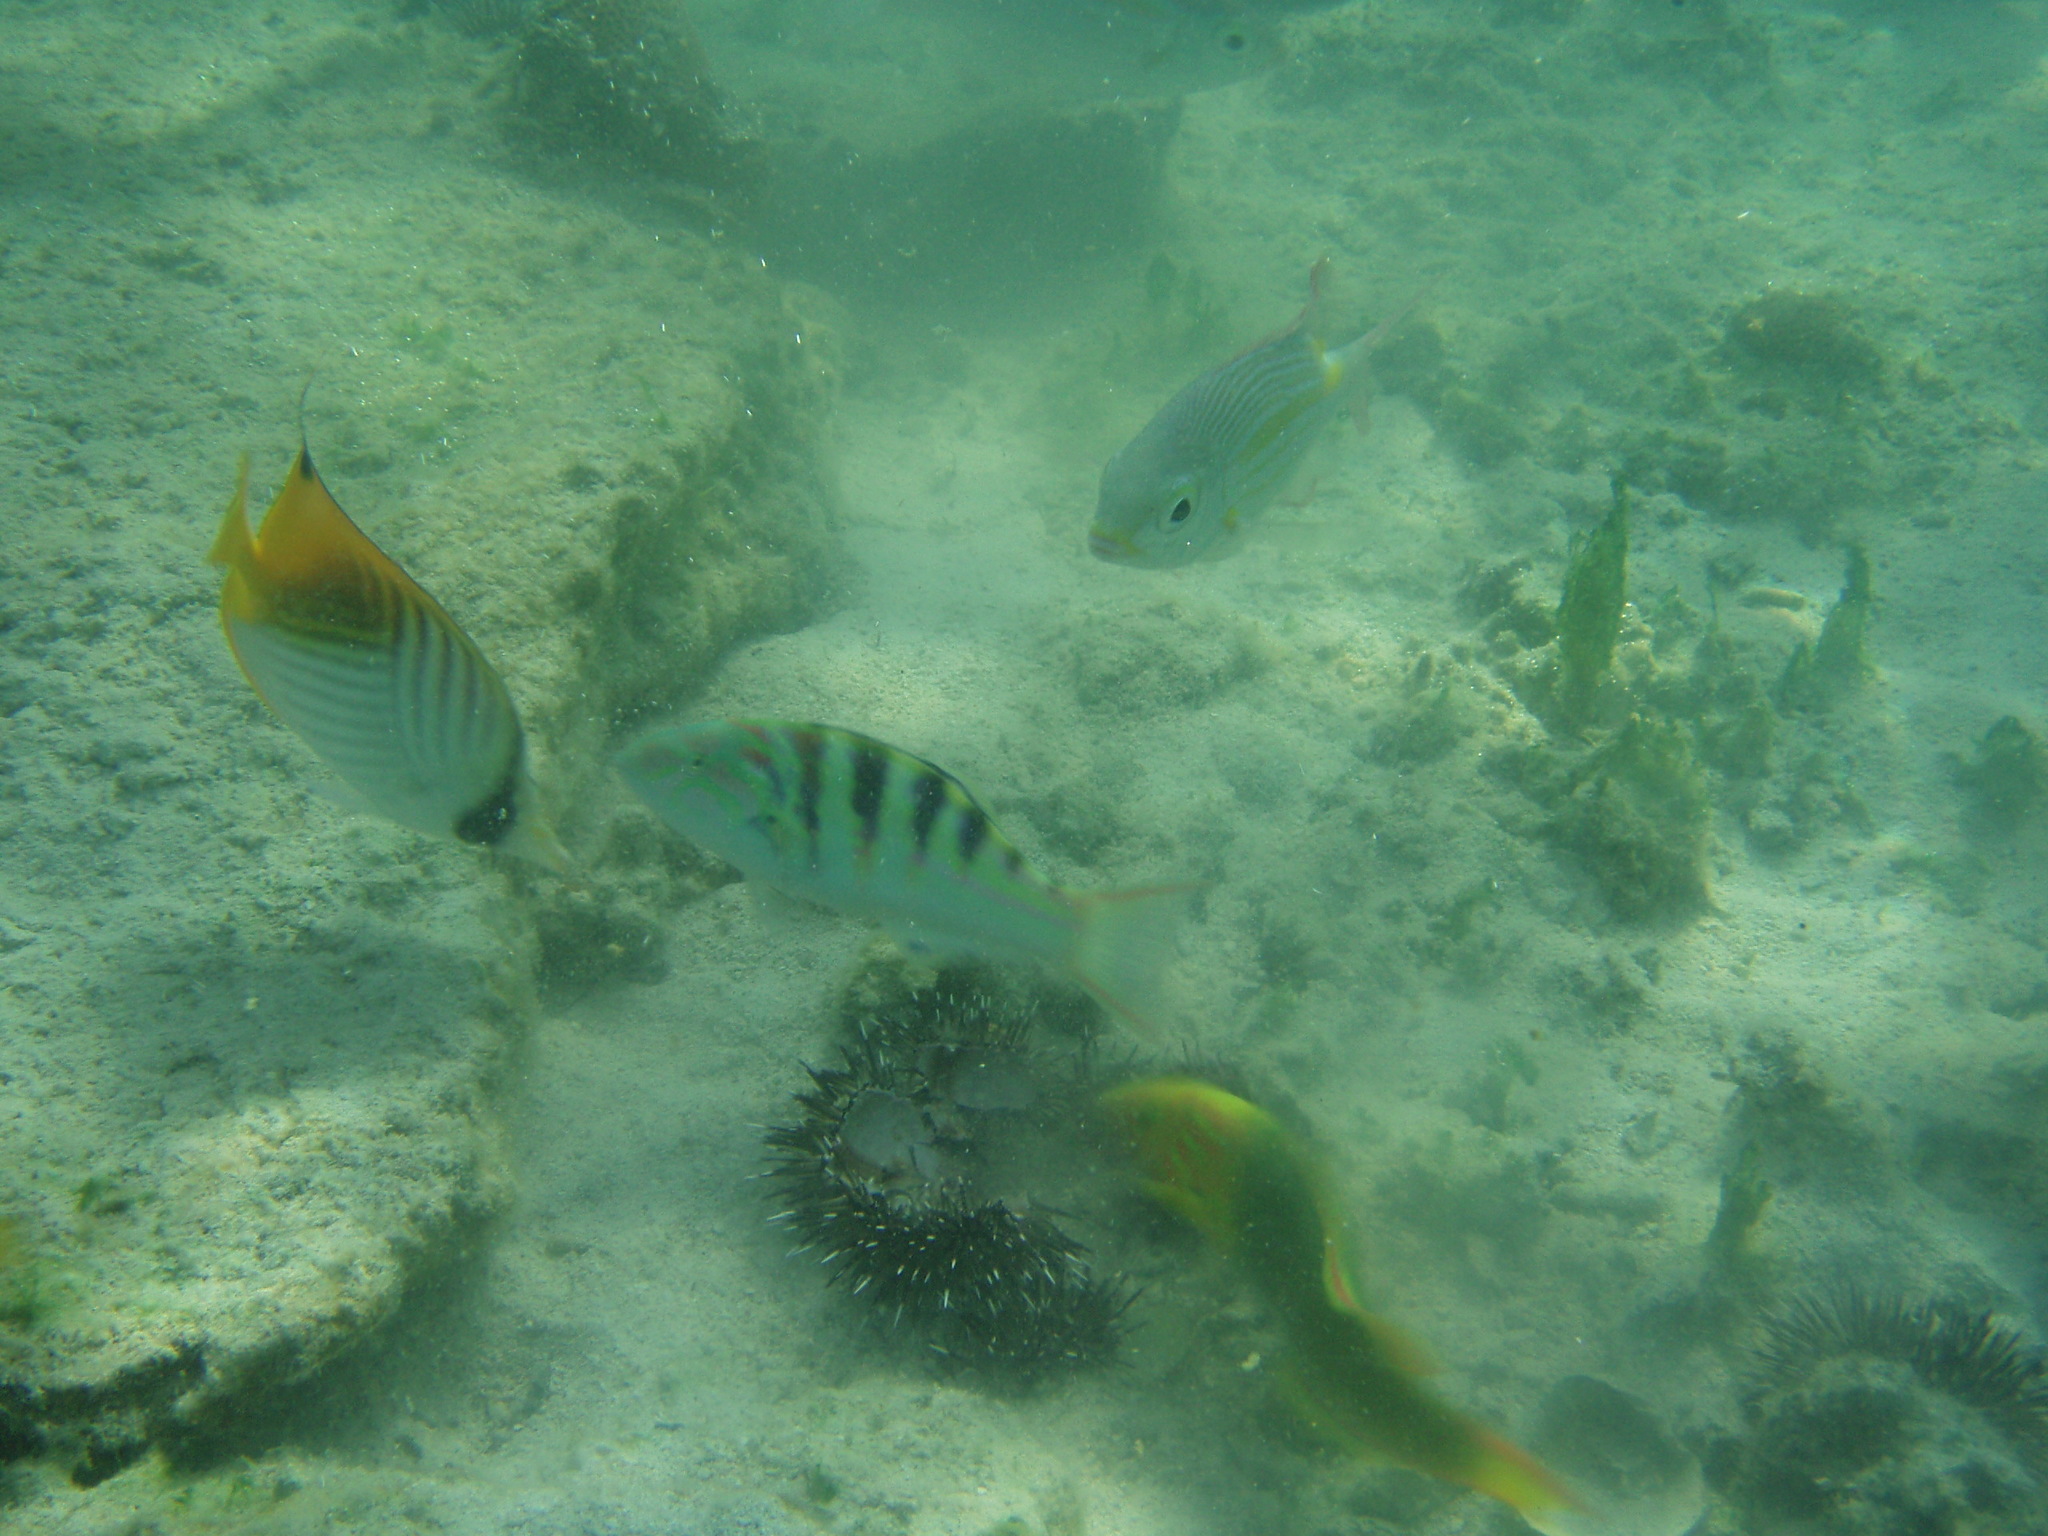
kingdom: Animalia
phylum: Chordata
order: Perciformes
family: Labridae
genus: Thalassoma
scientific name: Thalassoma lutescens
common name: Green moon wrasse
